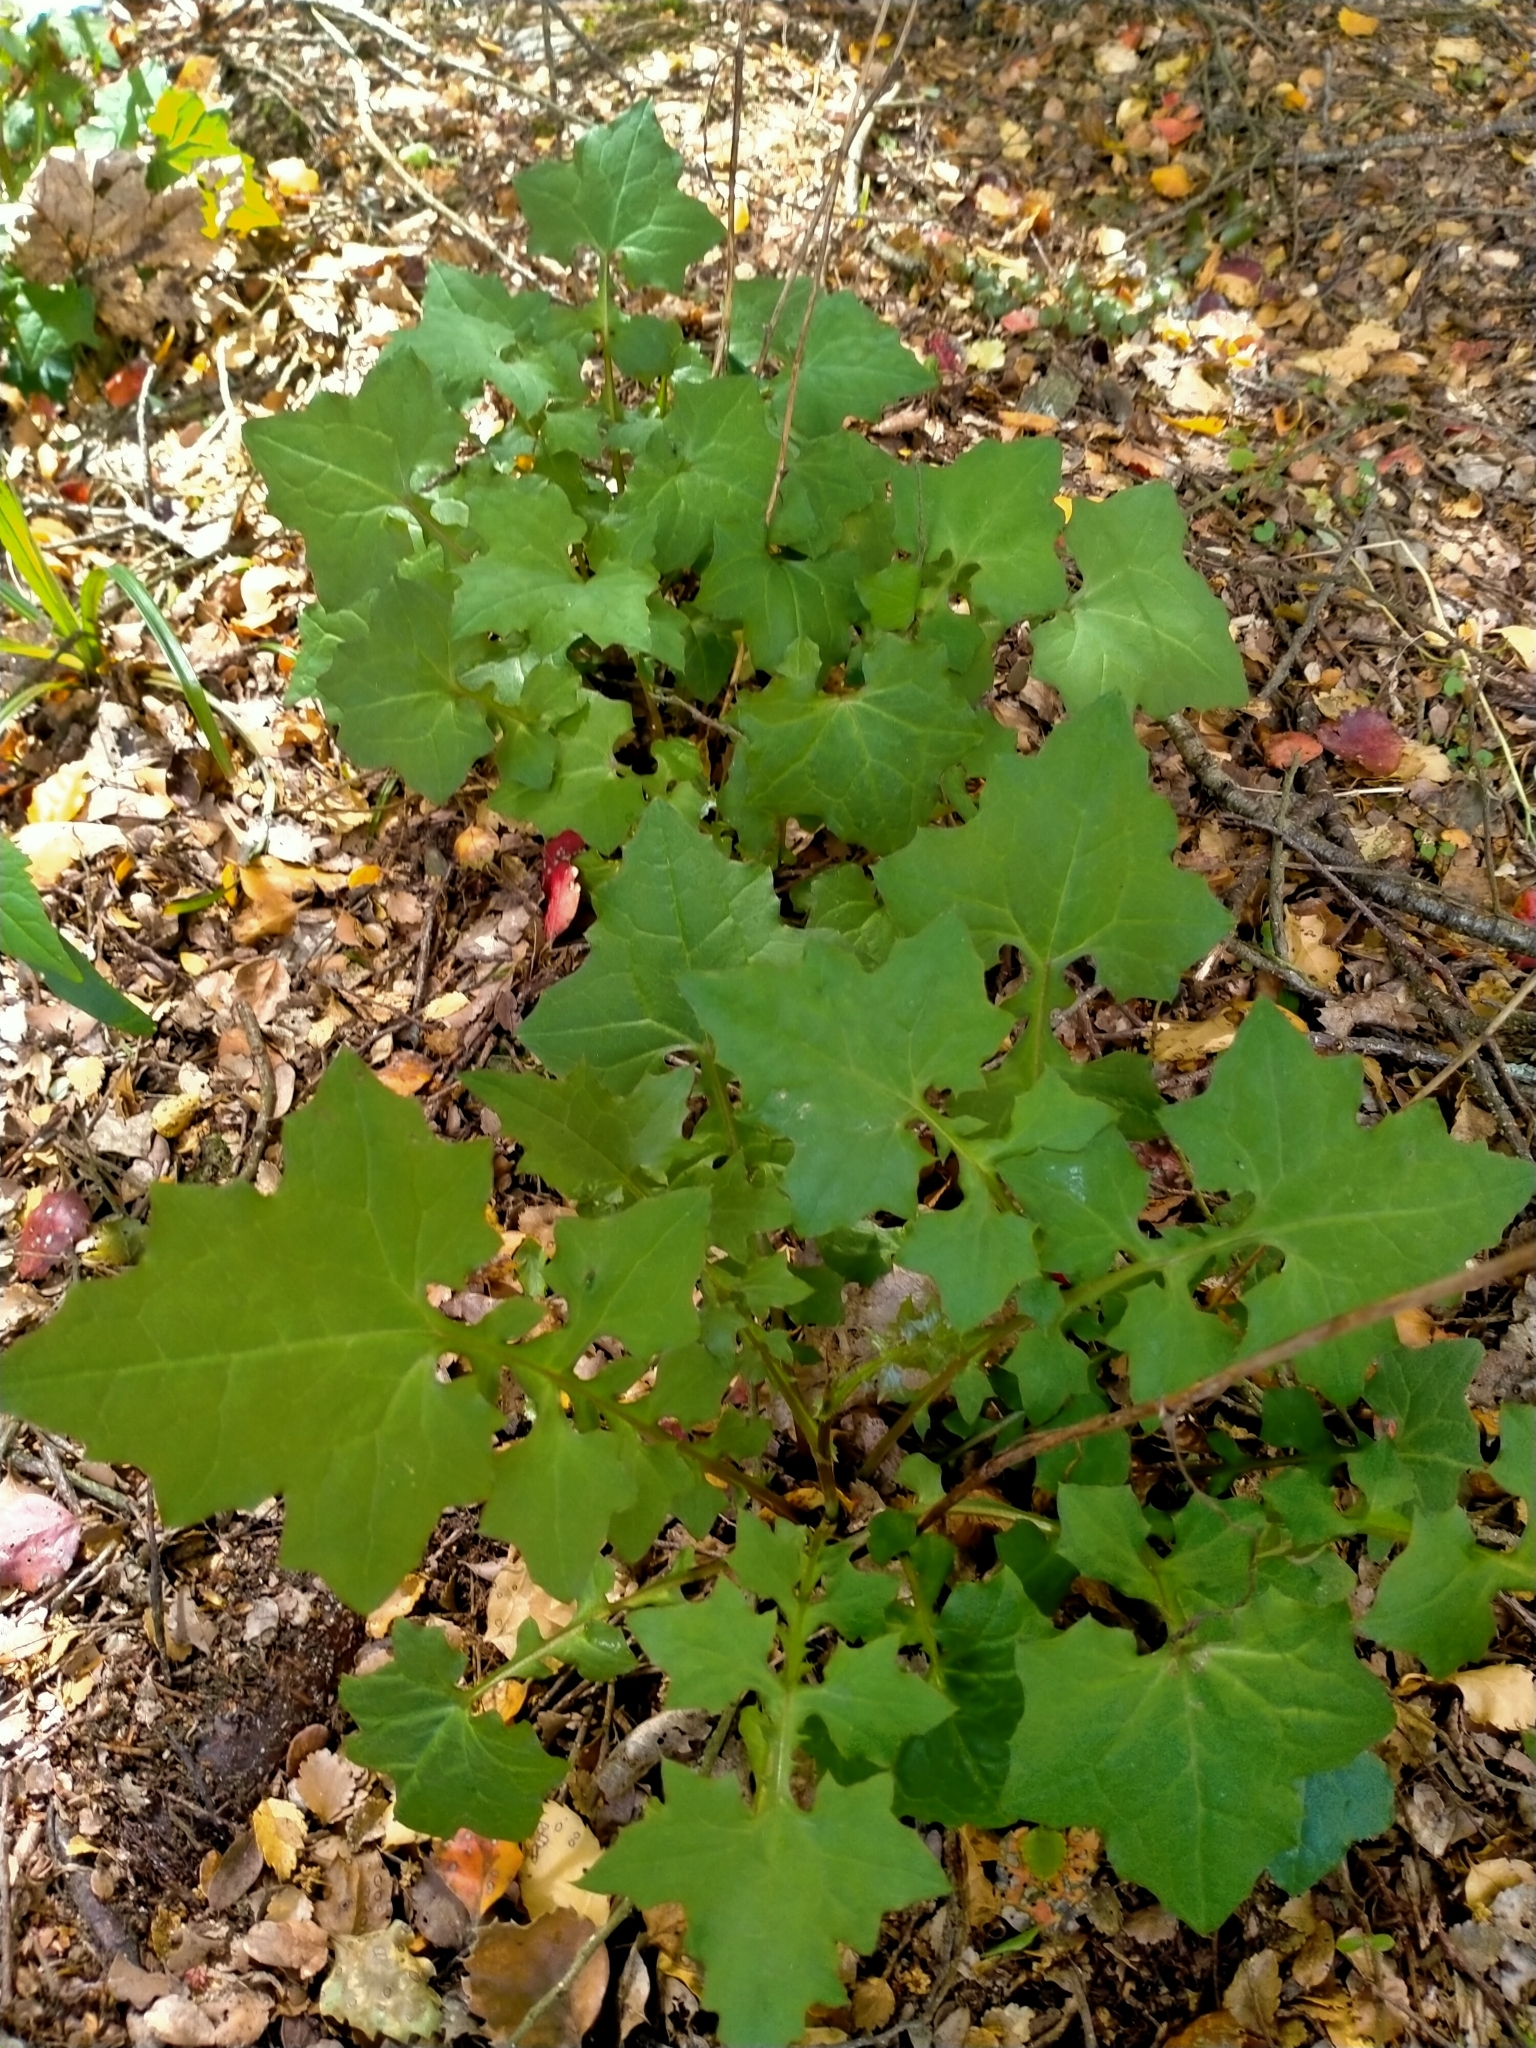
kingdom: Plantae
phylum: Tracheophyta
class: Magnoliopsida
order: Asterales
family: Asteraceae
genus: Mycelis
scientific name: Mycelis muralis
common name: Wall lettuce
